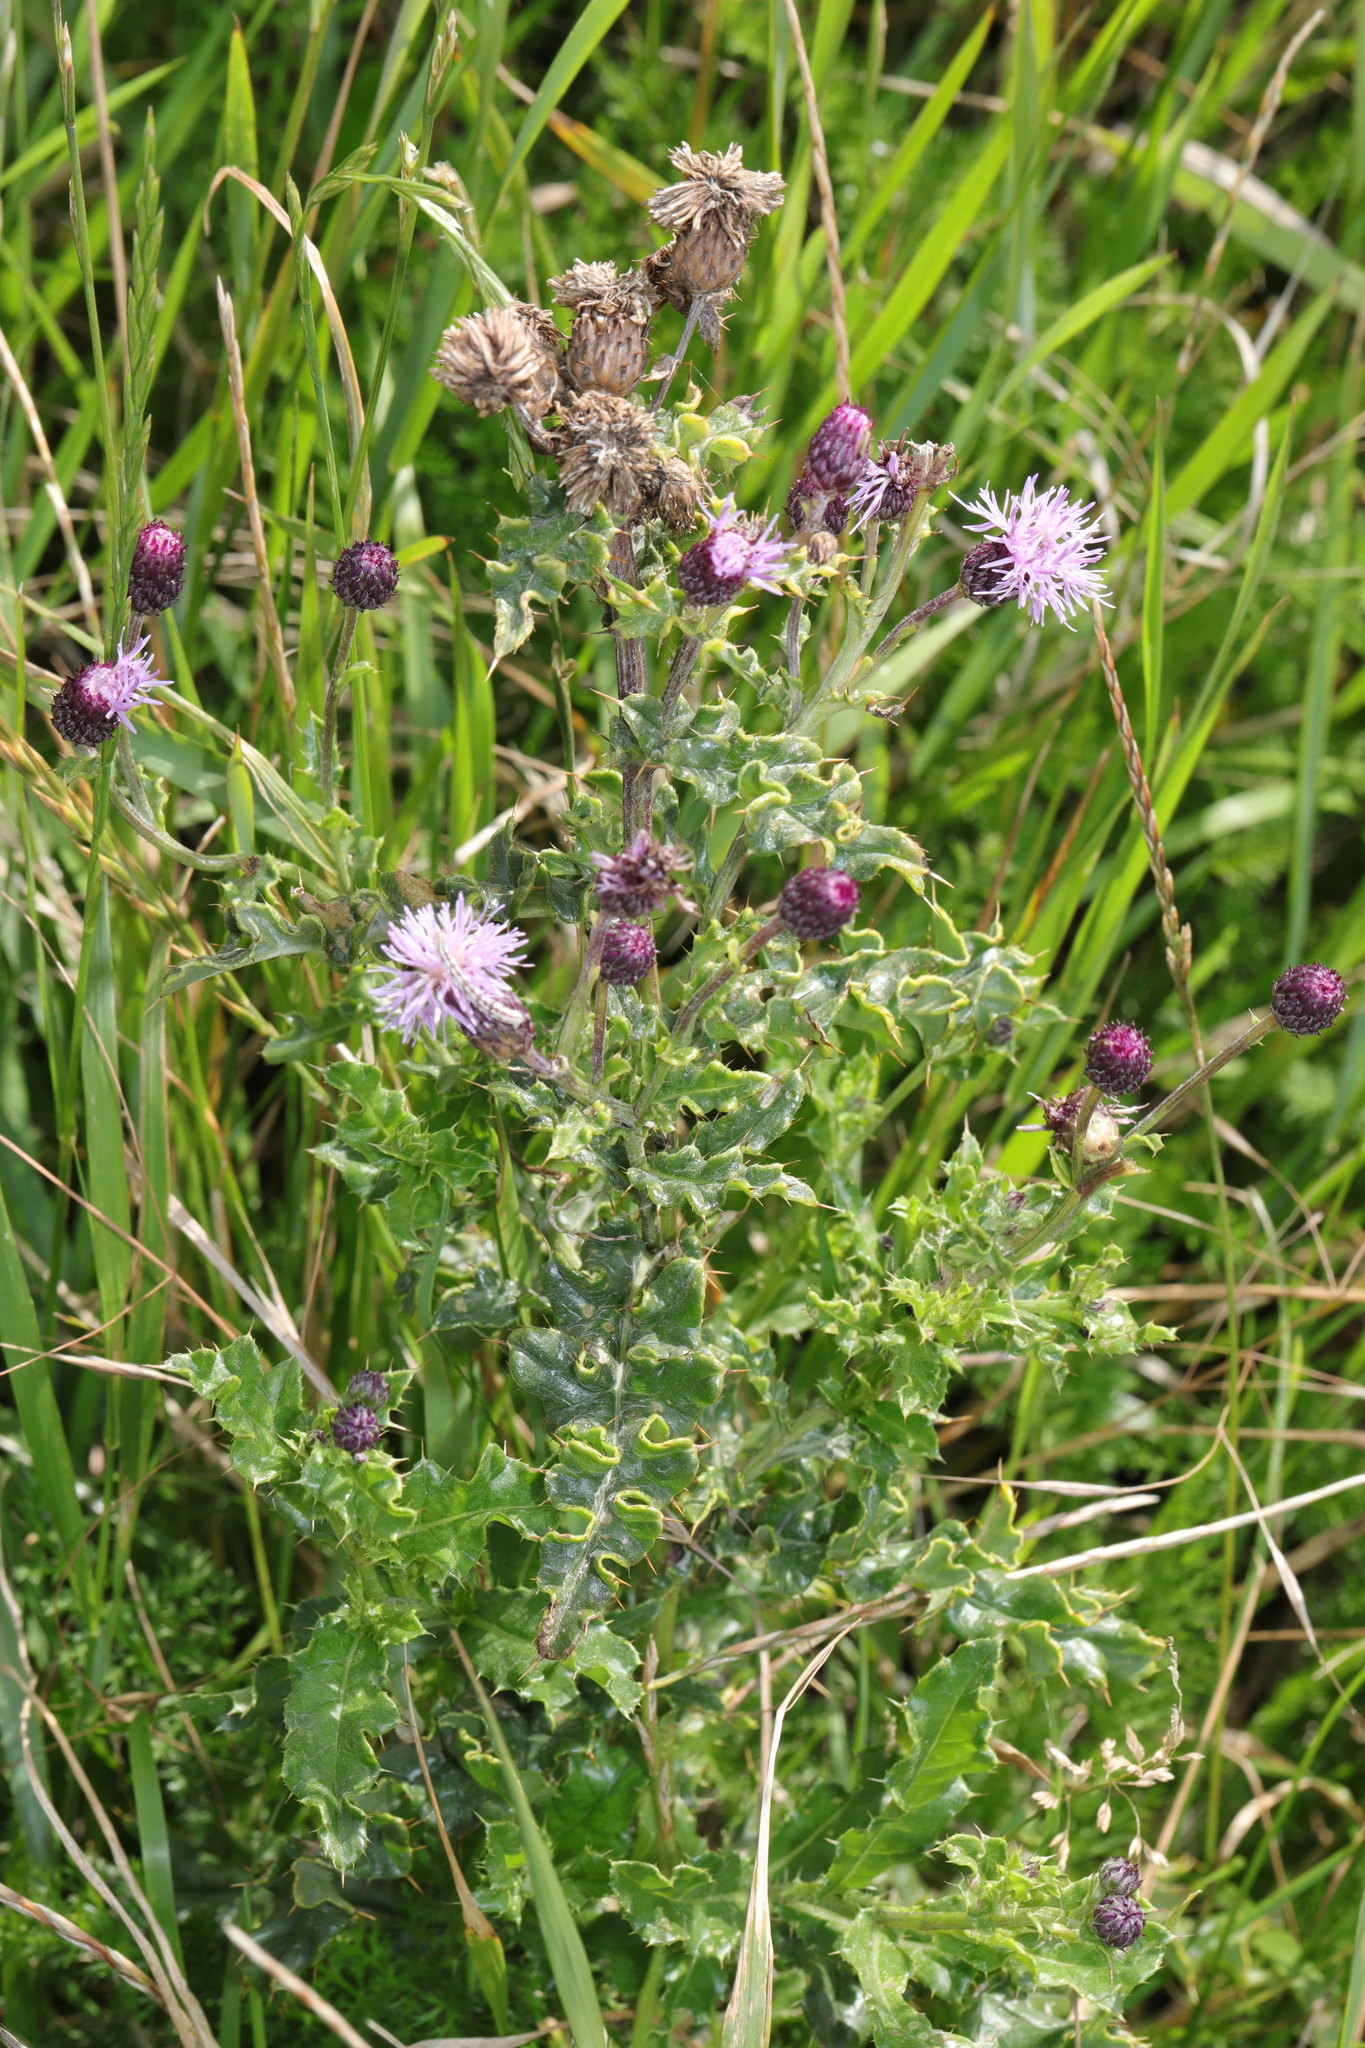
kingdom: Plantae
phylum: Tracheophyta
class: Magnoliopsida
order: Asterales
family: Asteraceae
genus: Cirsium
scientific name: Cirsium arvense
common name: Creeping thistle
